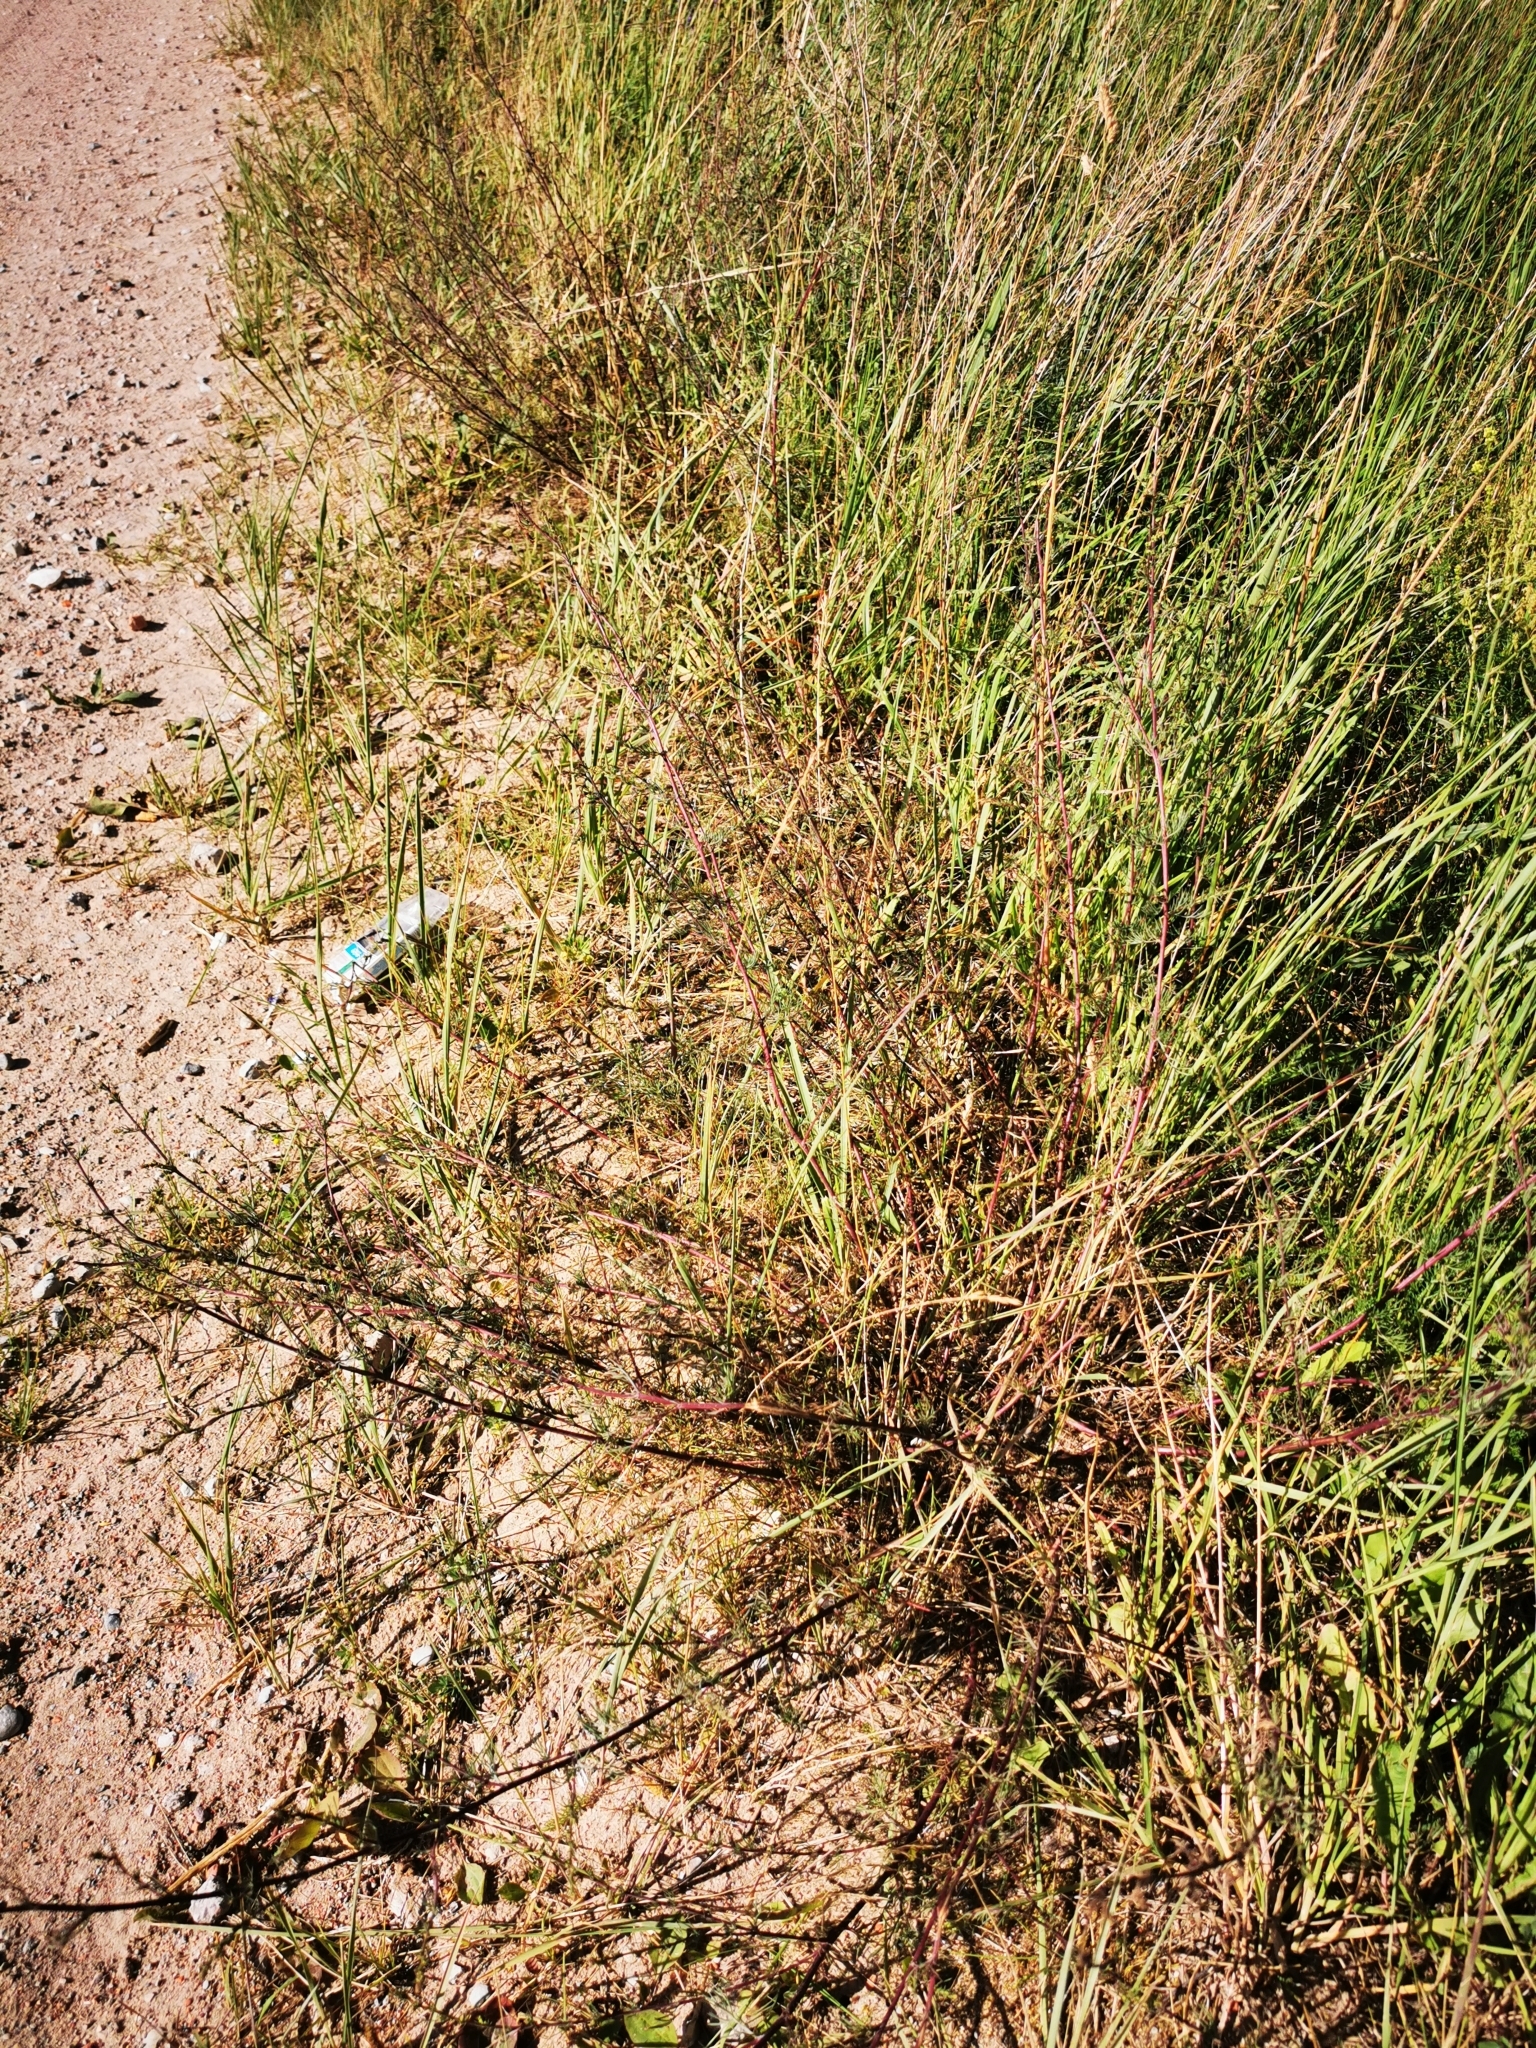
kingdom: Plantae
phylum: Tracheophyta
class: Magnoliopsida
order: Asterales
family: Asteraceae
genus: Artemisia
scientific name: Artemisia campestris
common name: Field wormwood
